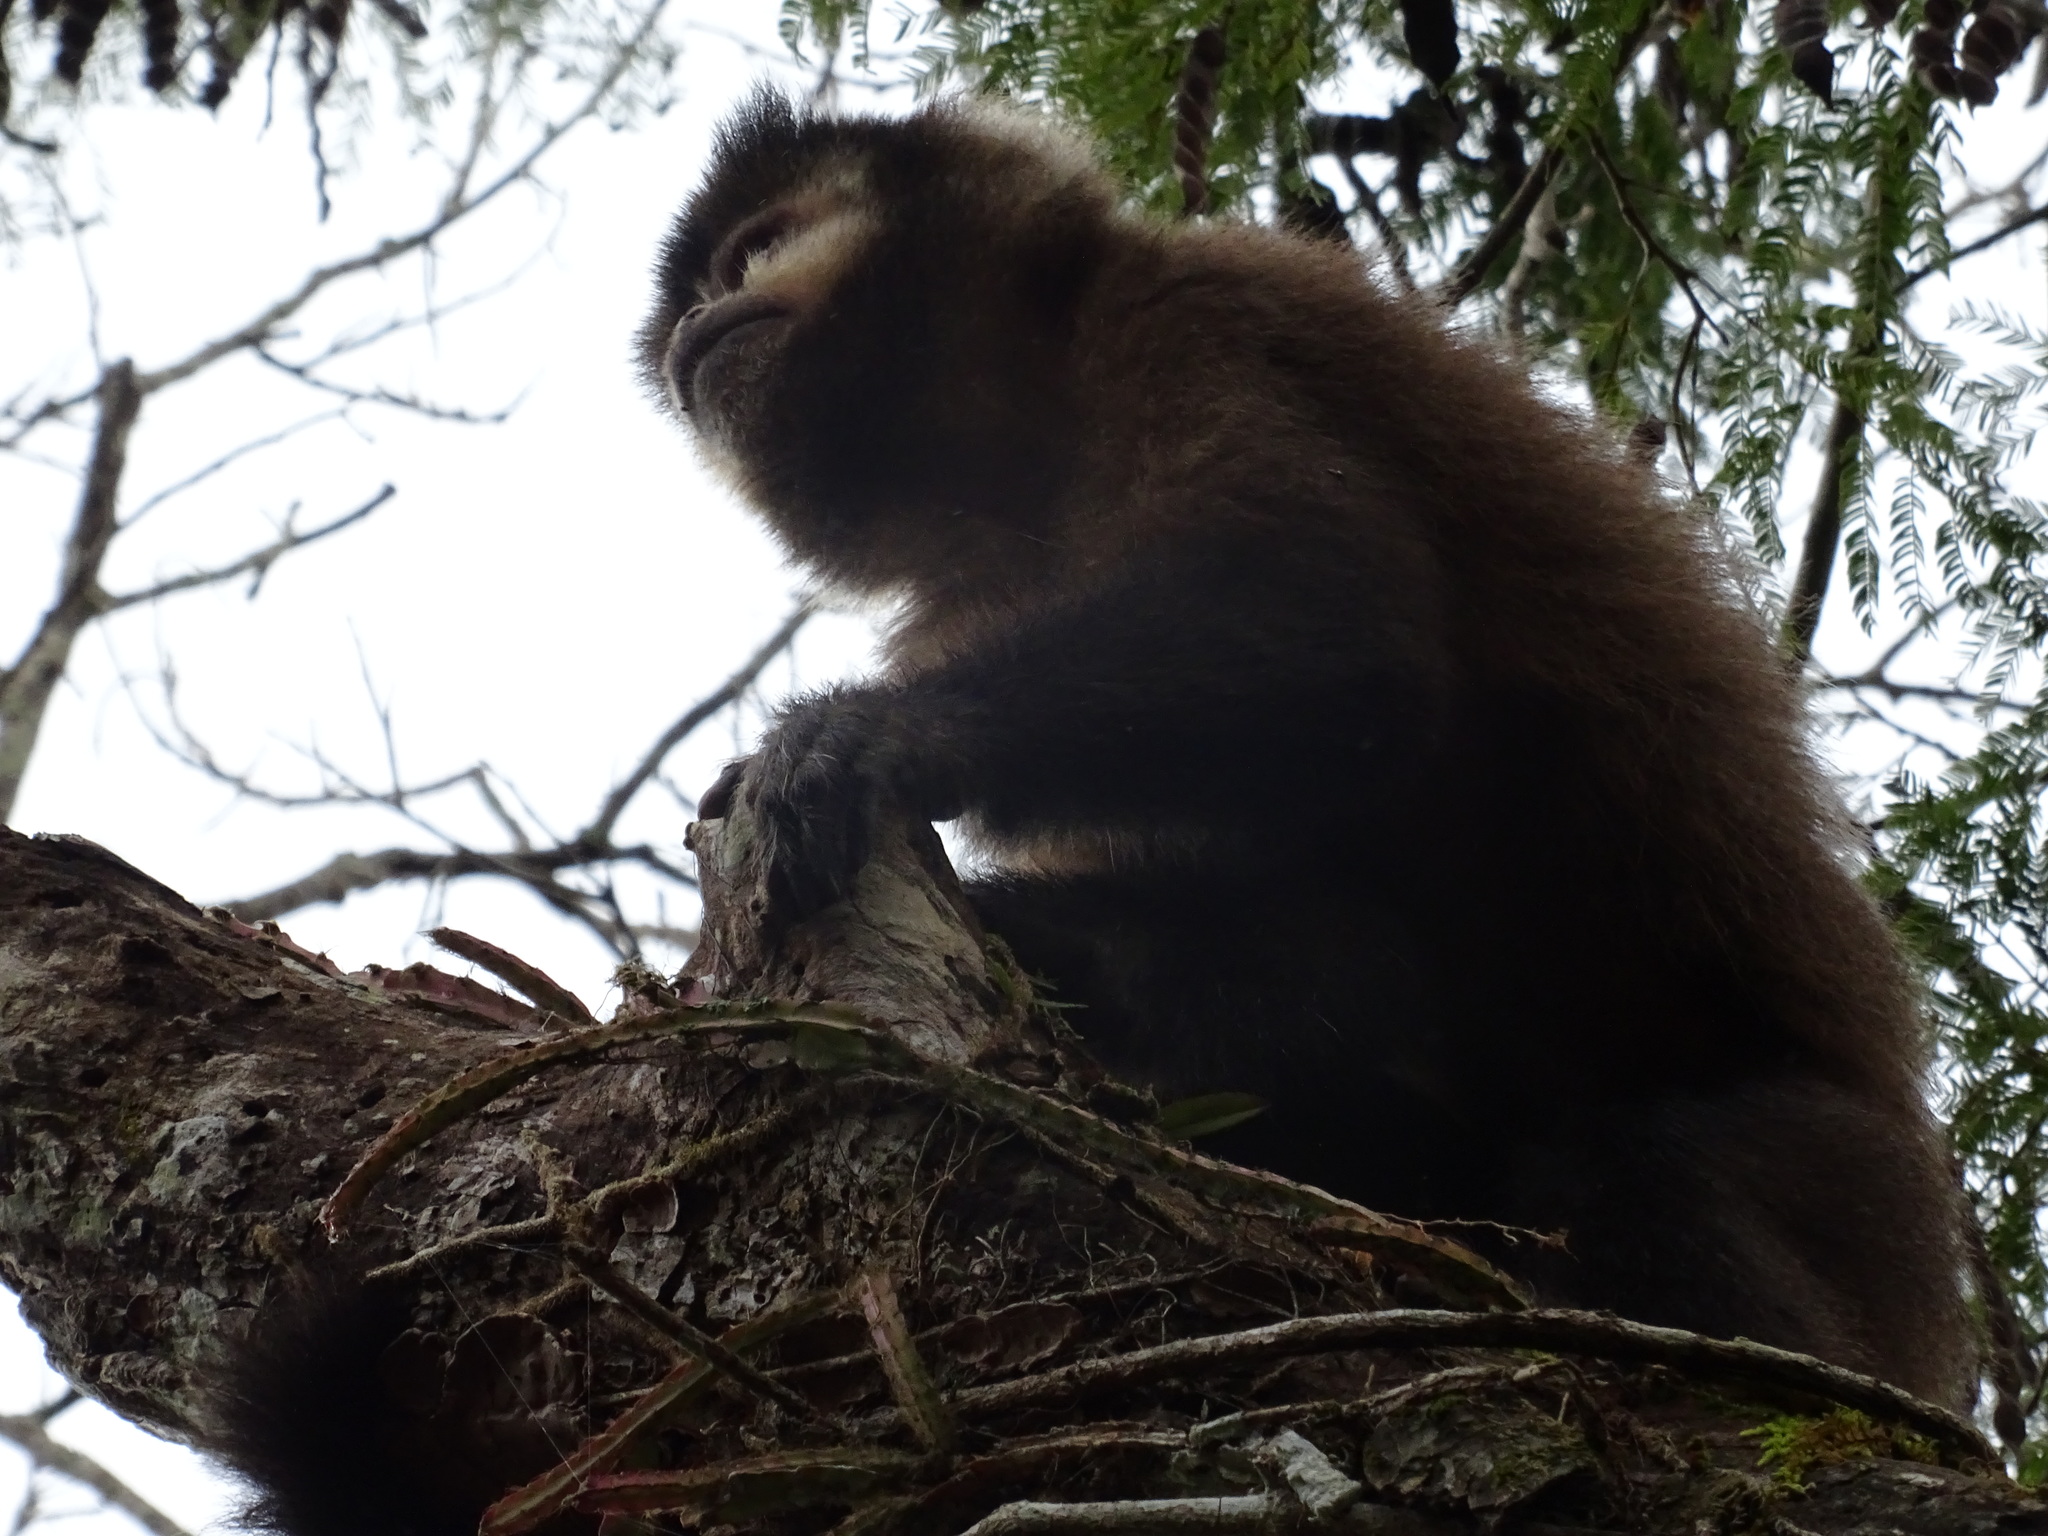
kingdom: Animalia
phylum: Chordata
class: Mammalia
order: Primates
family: Cebidae
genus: Sapajus
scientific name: Sapajus nigritus
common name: Black capuchin
